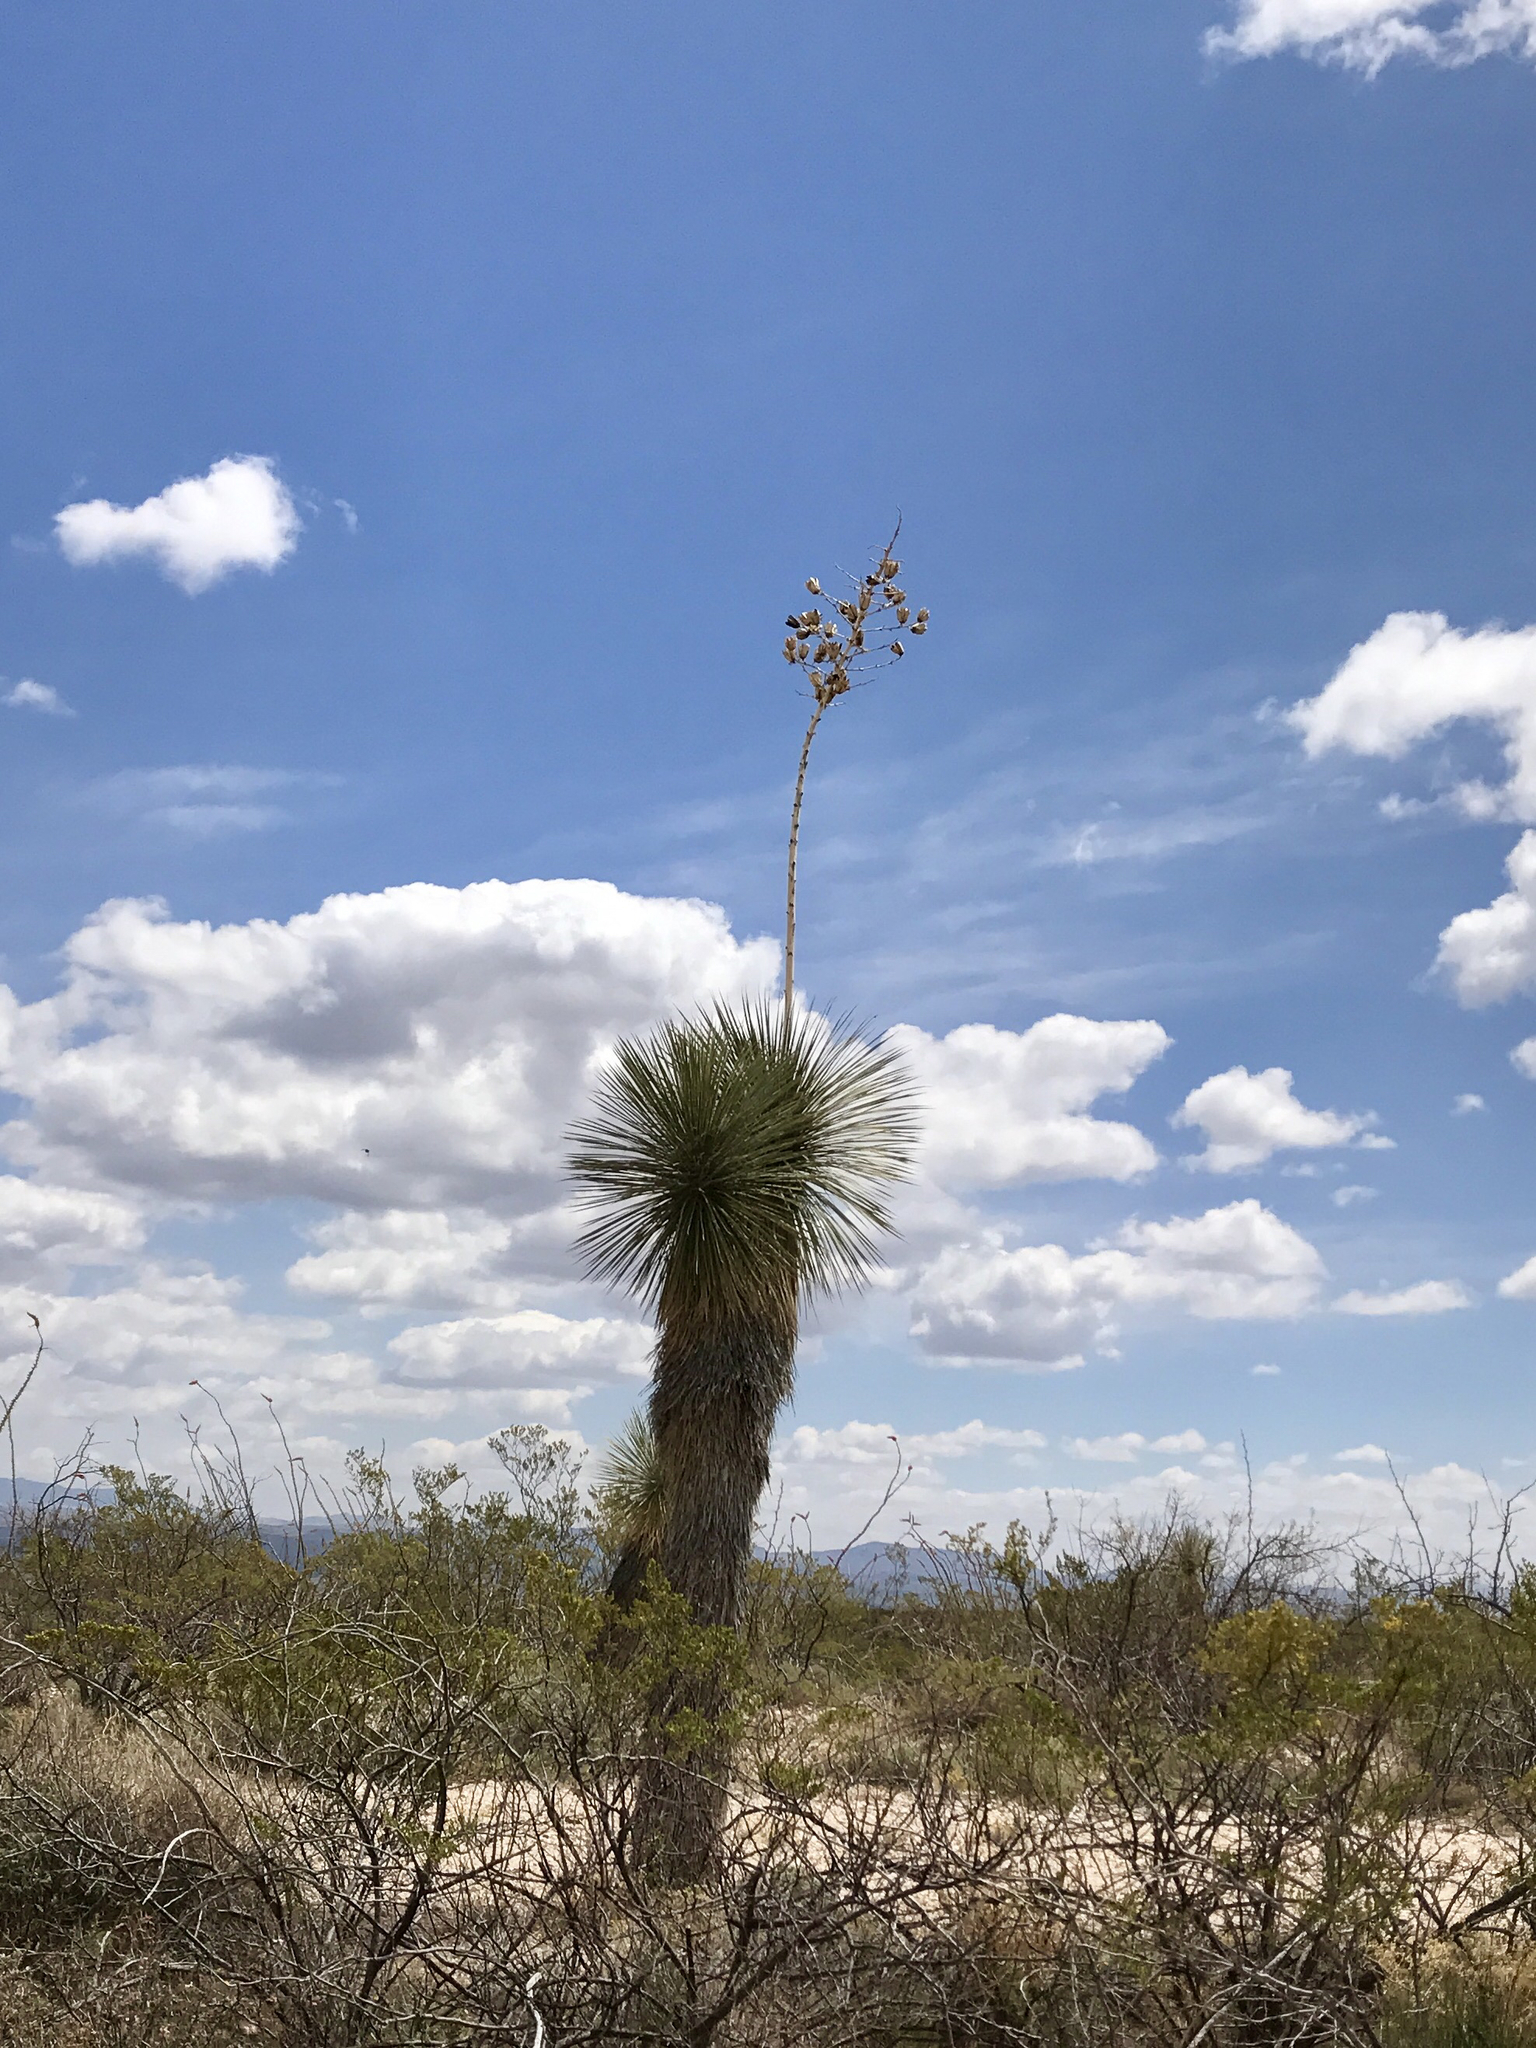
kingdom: Plantae
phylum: Tracheophyta
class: Liliopsida
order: Asparagales
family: Asparagaceae
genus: Yucca
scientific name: Yucca elata
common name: Palmella
